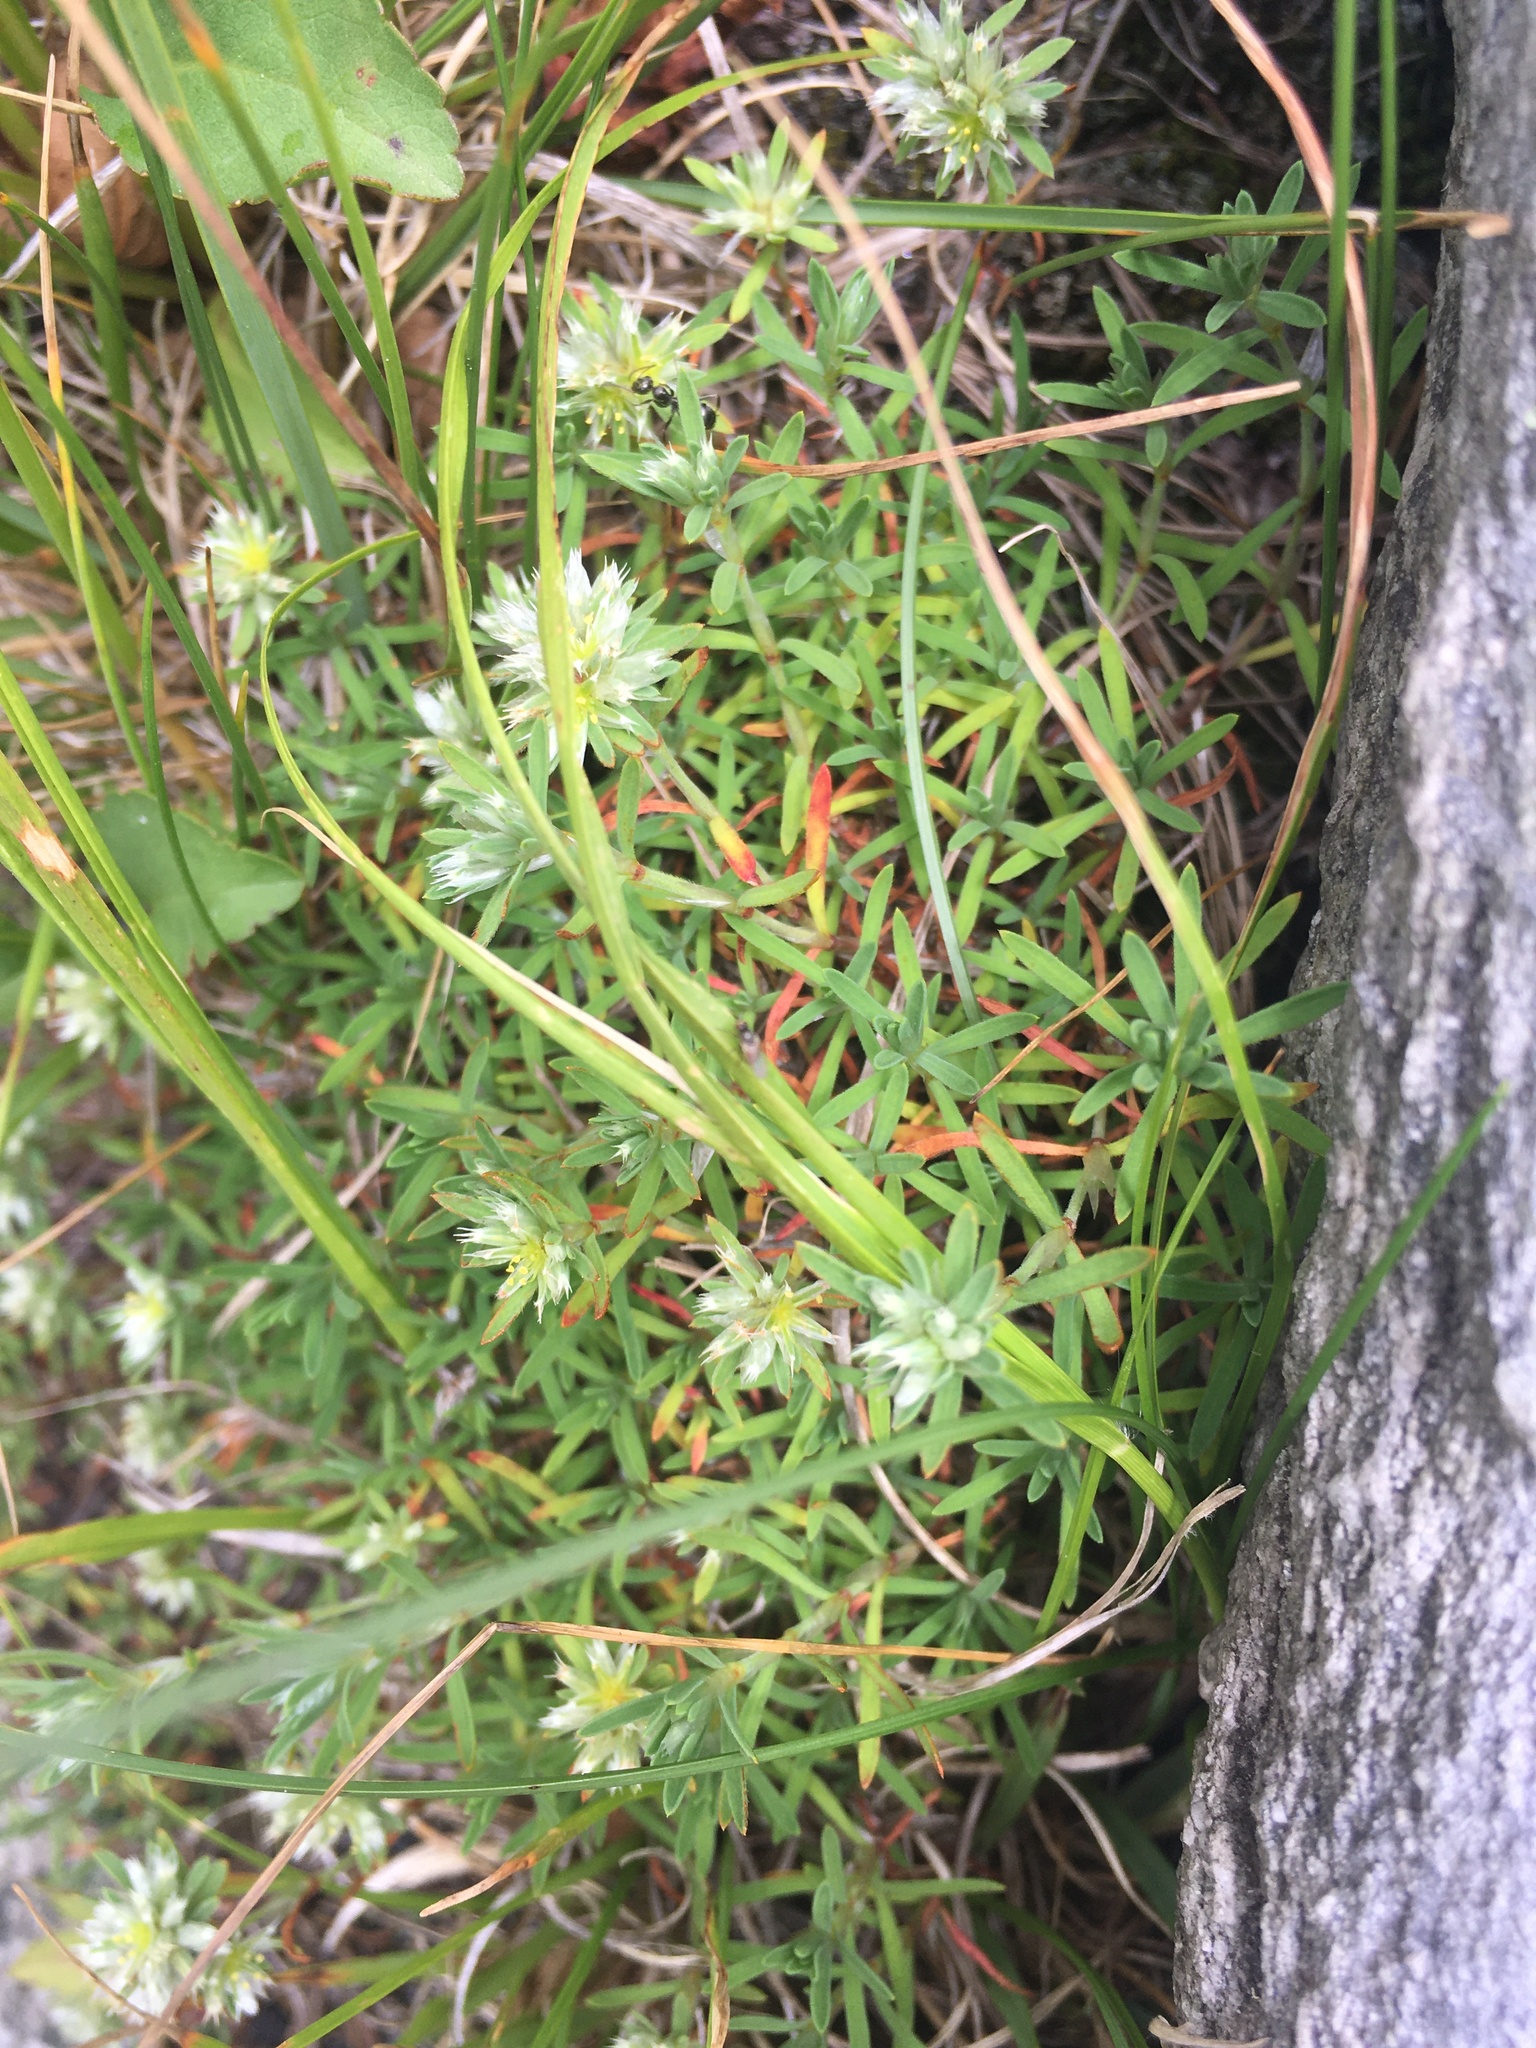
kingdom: Plantae
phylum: Tracheophyta
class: Magnoliopsida
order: Caryophyllales
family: Caryophyllaceae
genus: Paronychia
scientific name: Paronychia argyrocoma
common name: Silverling
